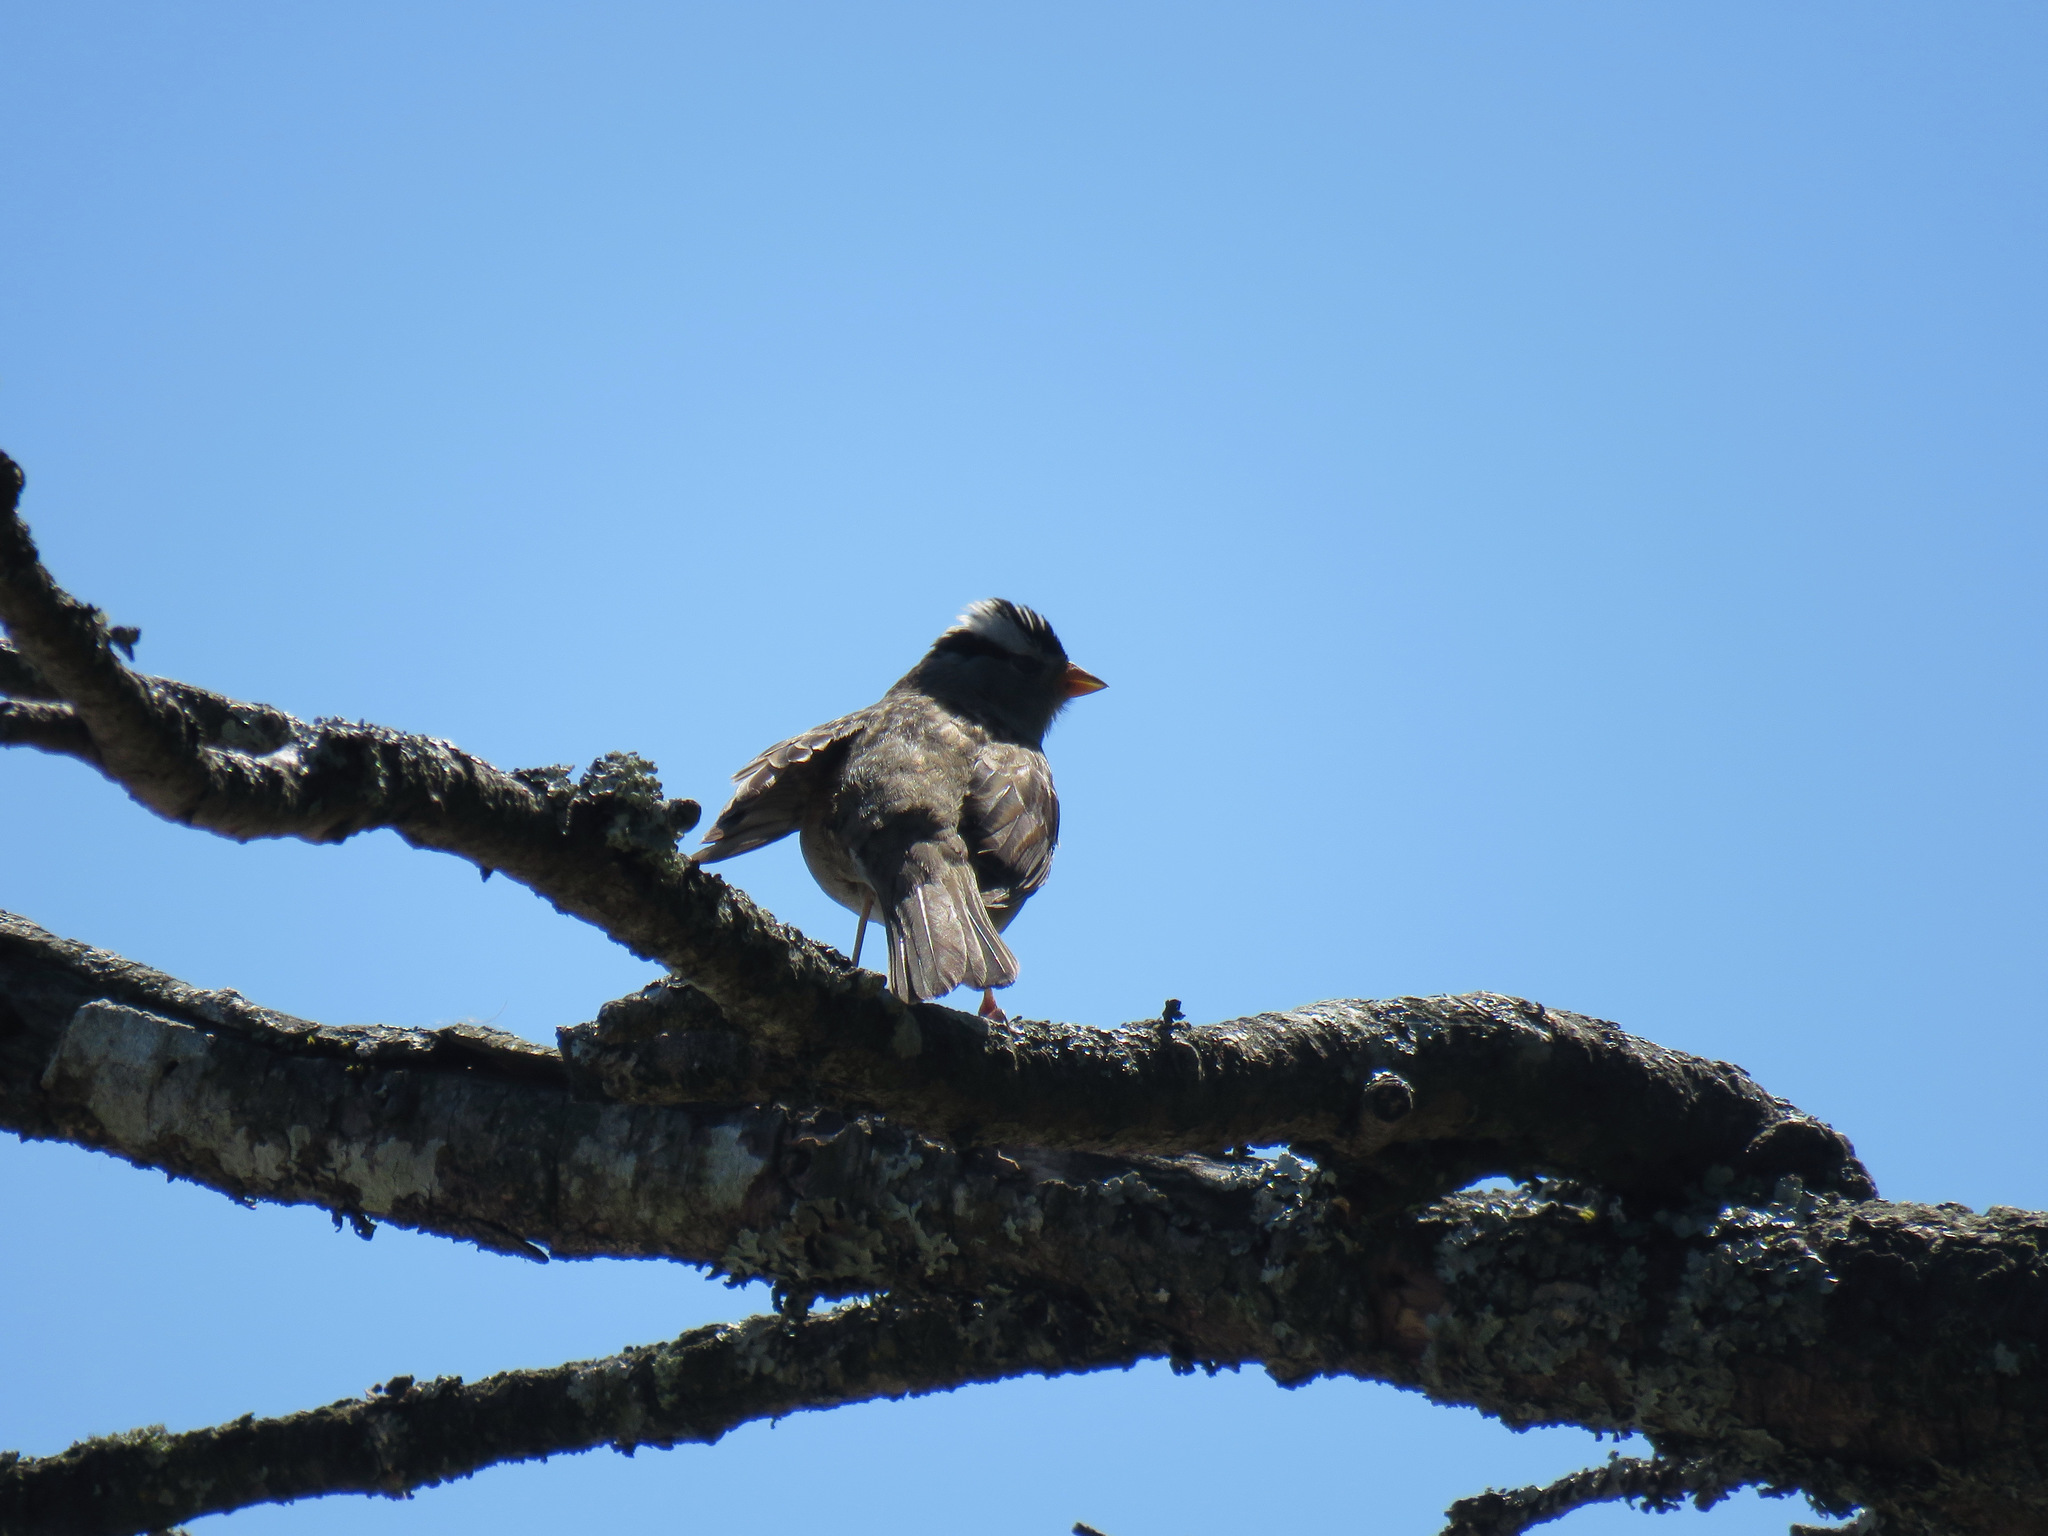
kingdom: Animalia
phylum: Chordata
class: Aves
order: Passeriformes
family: Passerellidae
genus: Zonotrichia
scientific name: Zonotrichia leucophrys
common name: White-crowned sparrow
